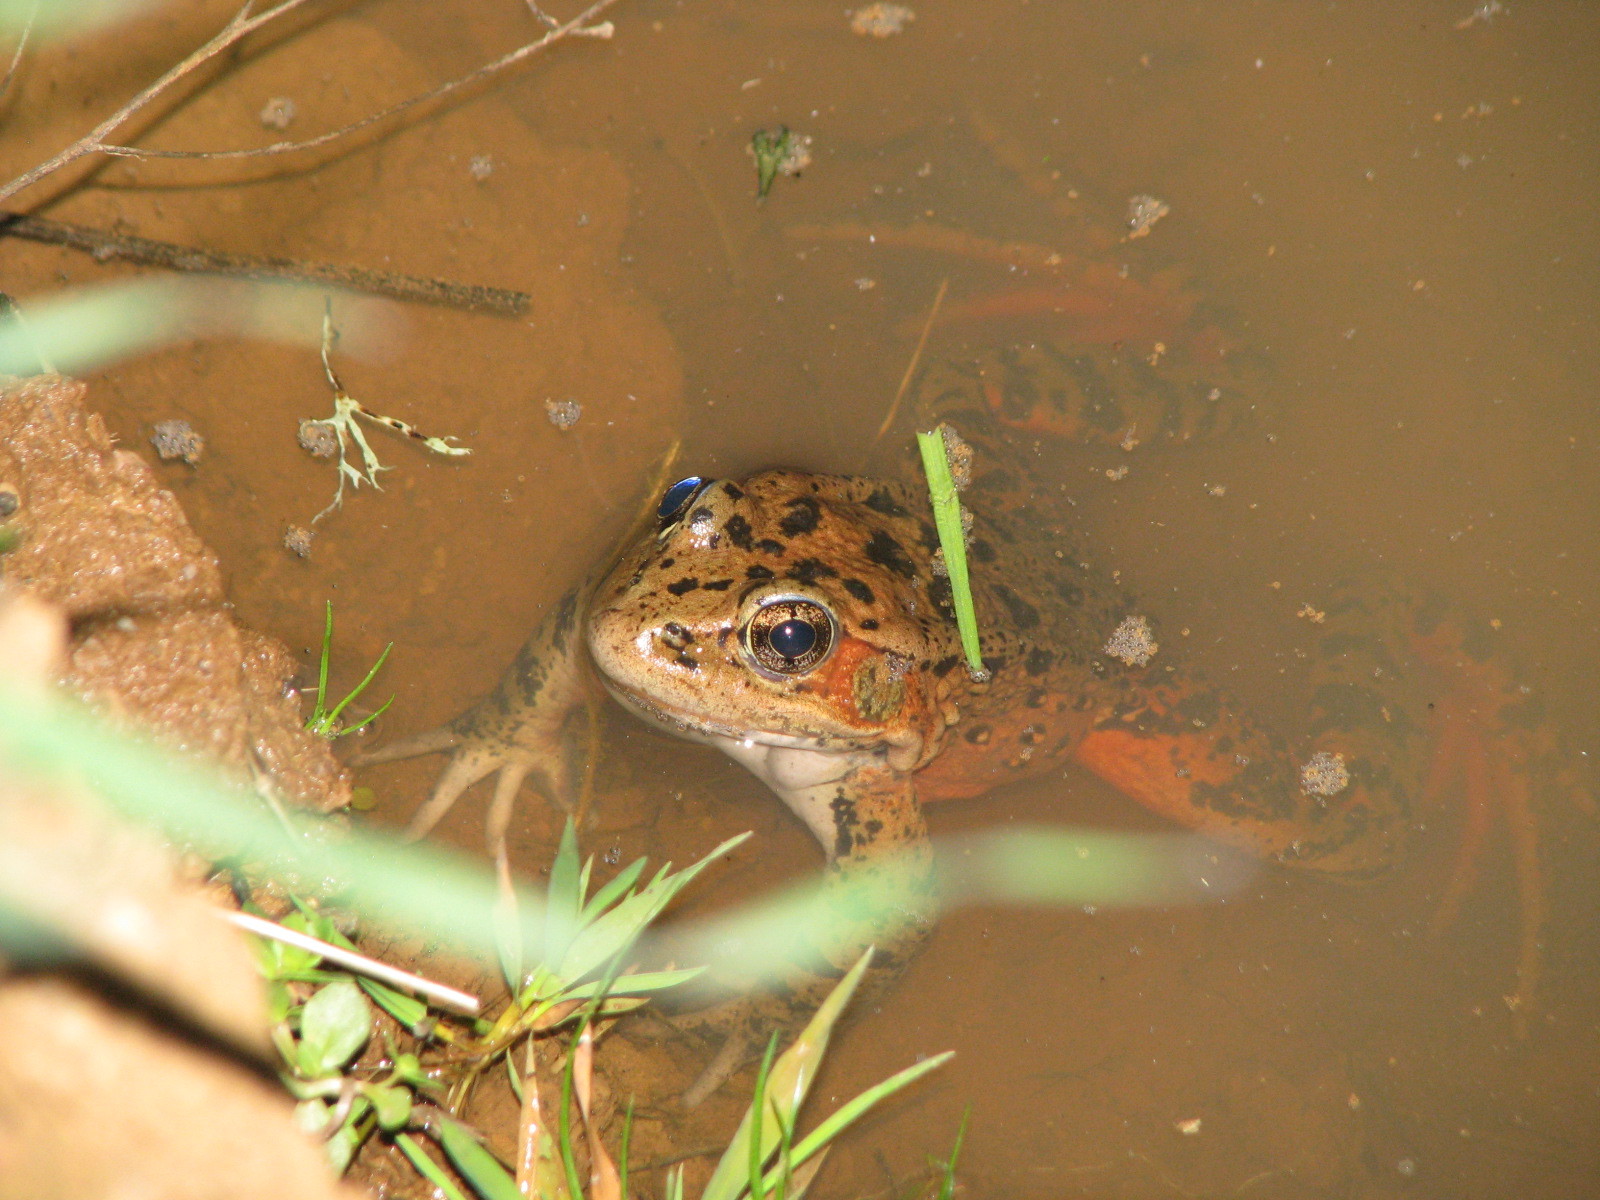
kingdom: Animalia
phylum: Chordata
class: Amphibia
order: Anura
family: Ranidae
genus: Rana
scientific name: Rana draytonii
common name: California red-legged frog
